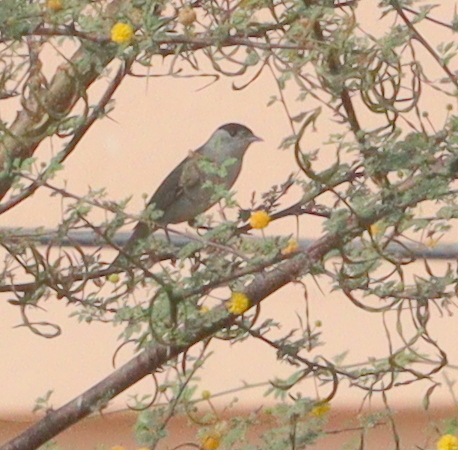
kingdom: Animalia
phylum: Chordata
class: Aves
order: Passeriformes
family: Sylviidae
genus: Sylvia
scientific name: Sylvia atricapilla
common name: Eurasian blackcap
